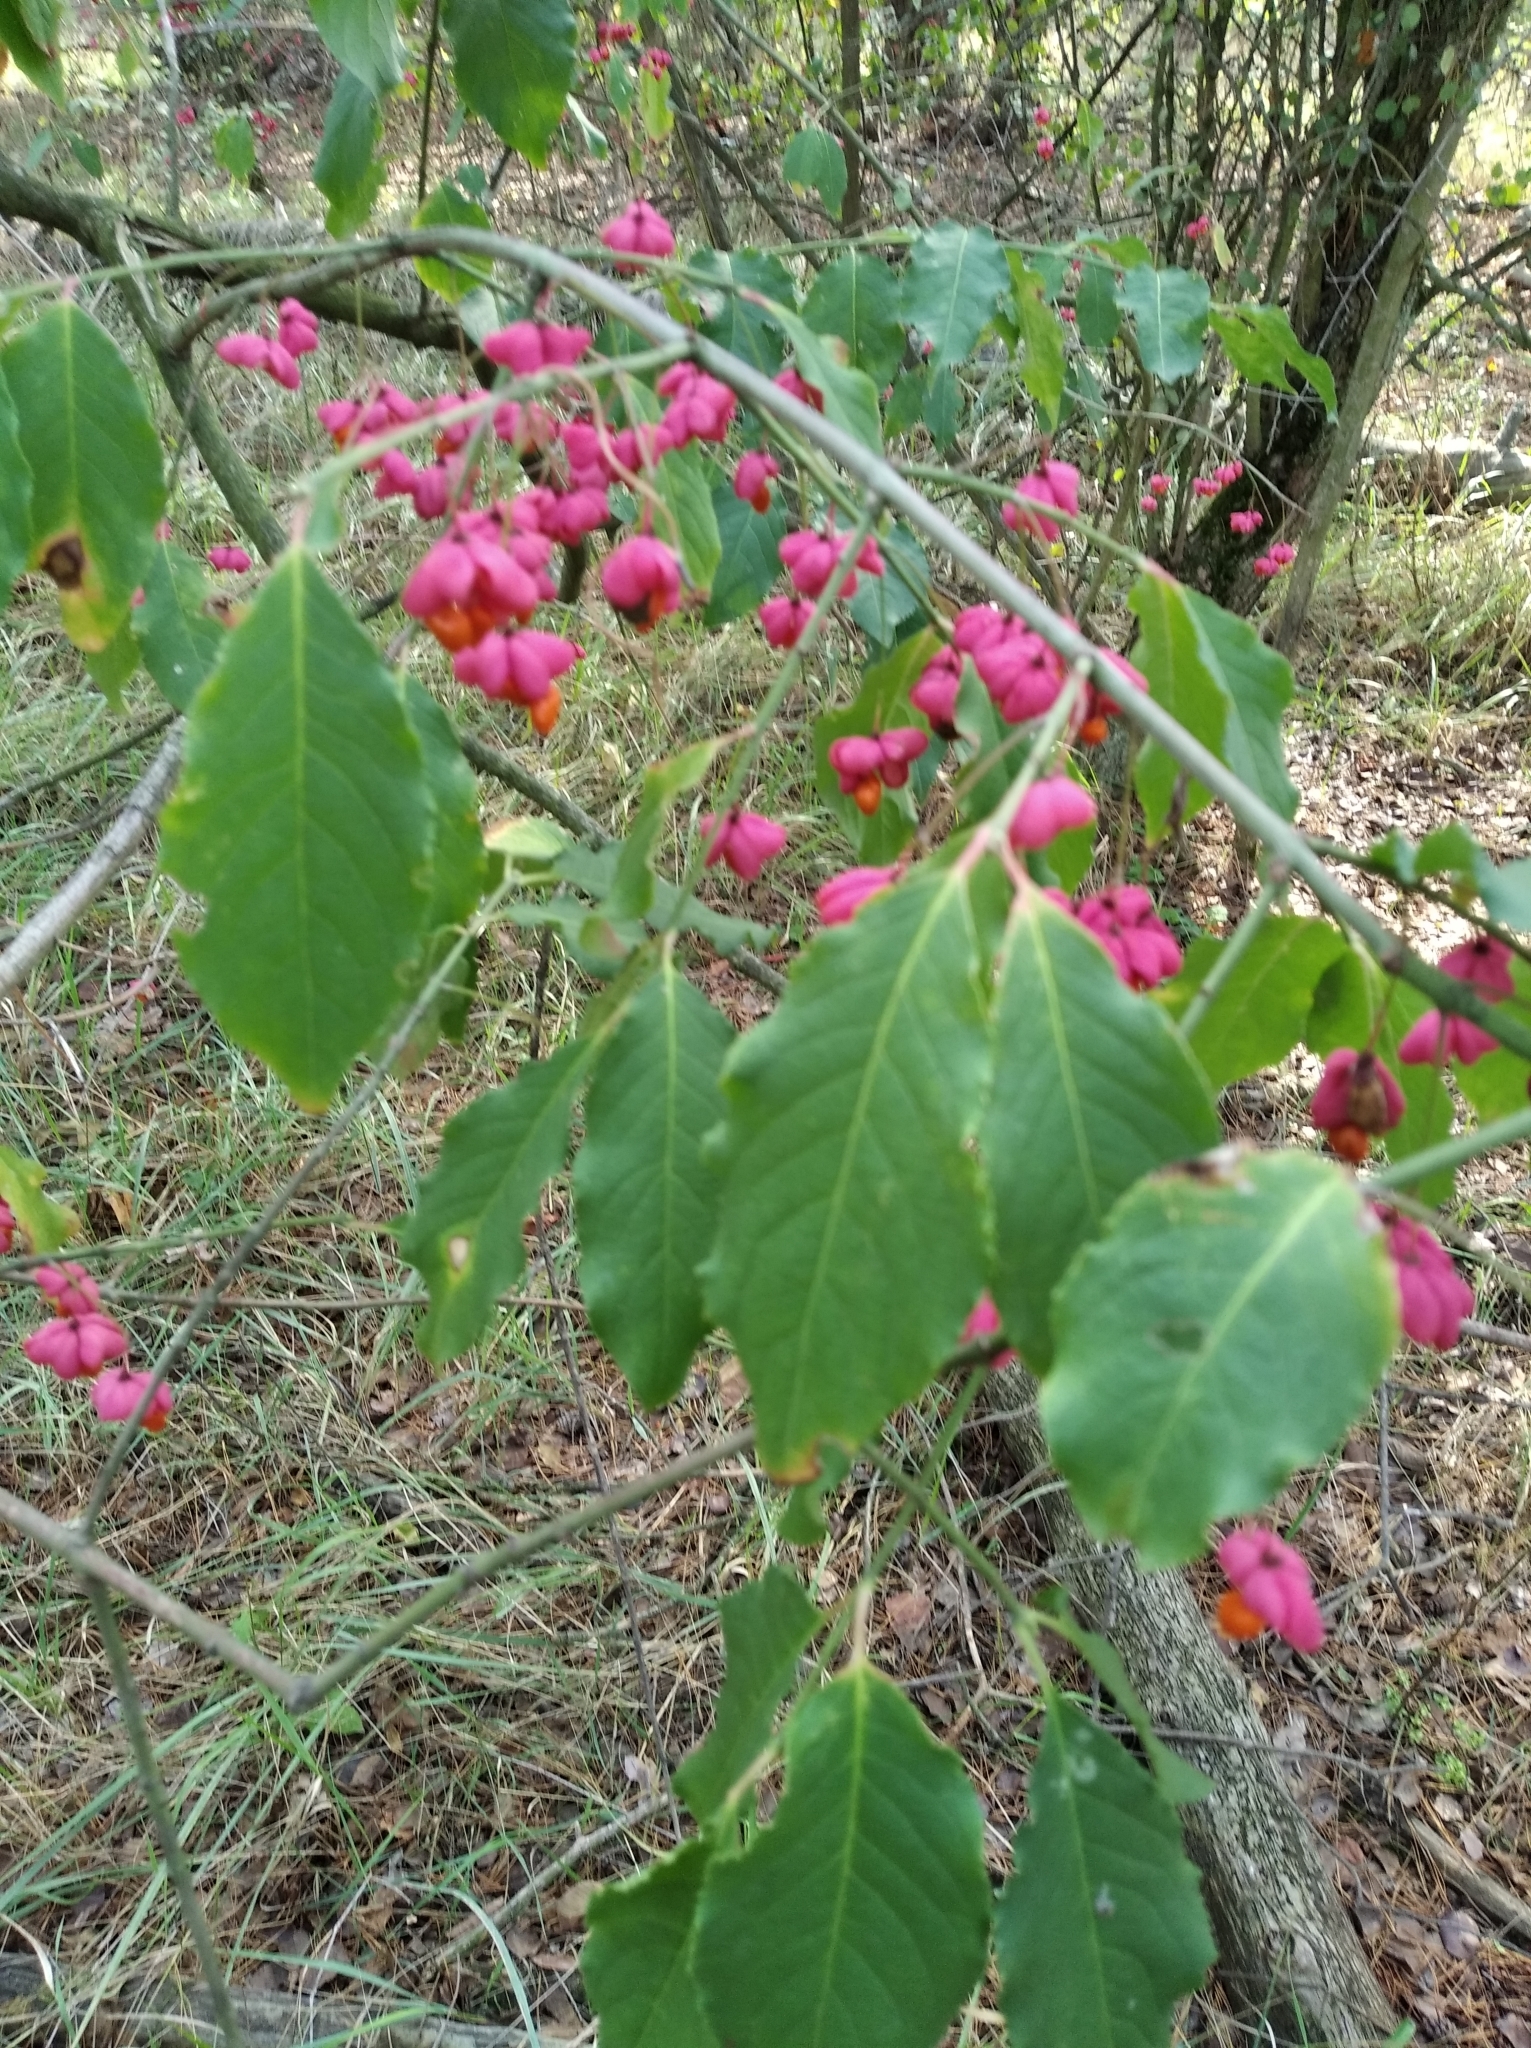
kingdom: Plantae
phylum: Tracheophyta
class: Magnoliopsida
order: Celastrales
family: Celastraceae
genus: Euonymus
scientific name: Euonymus europaeus
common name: Spindle
